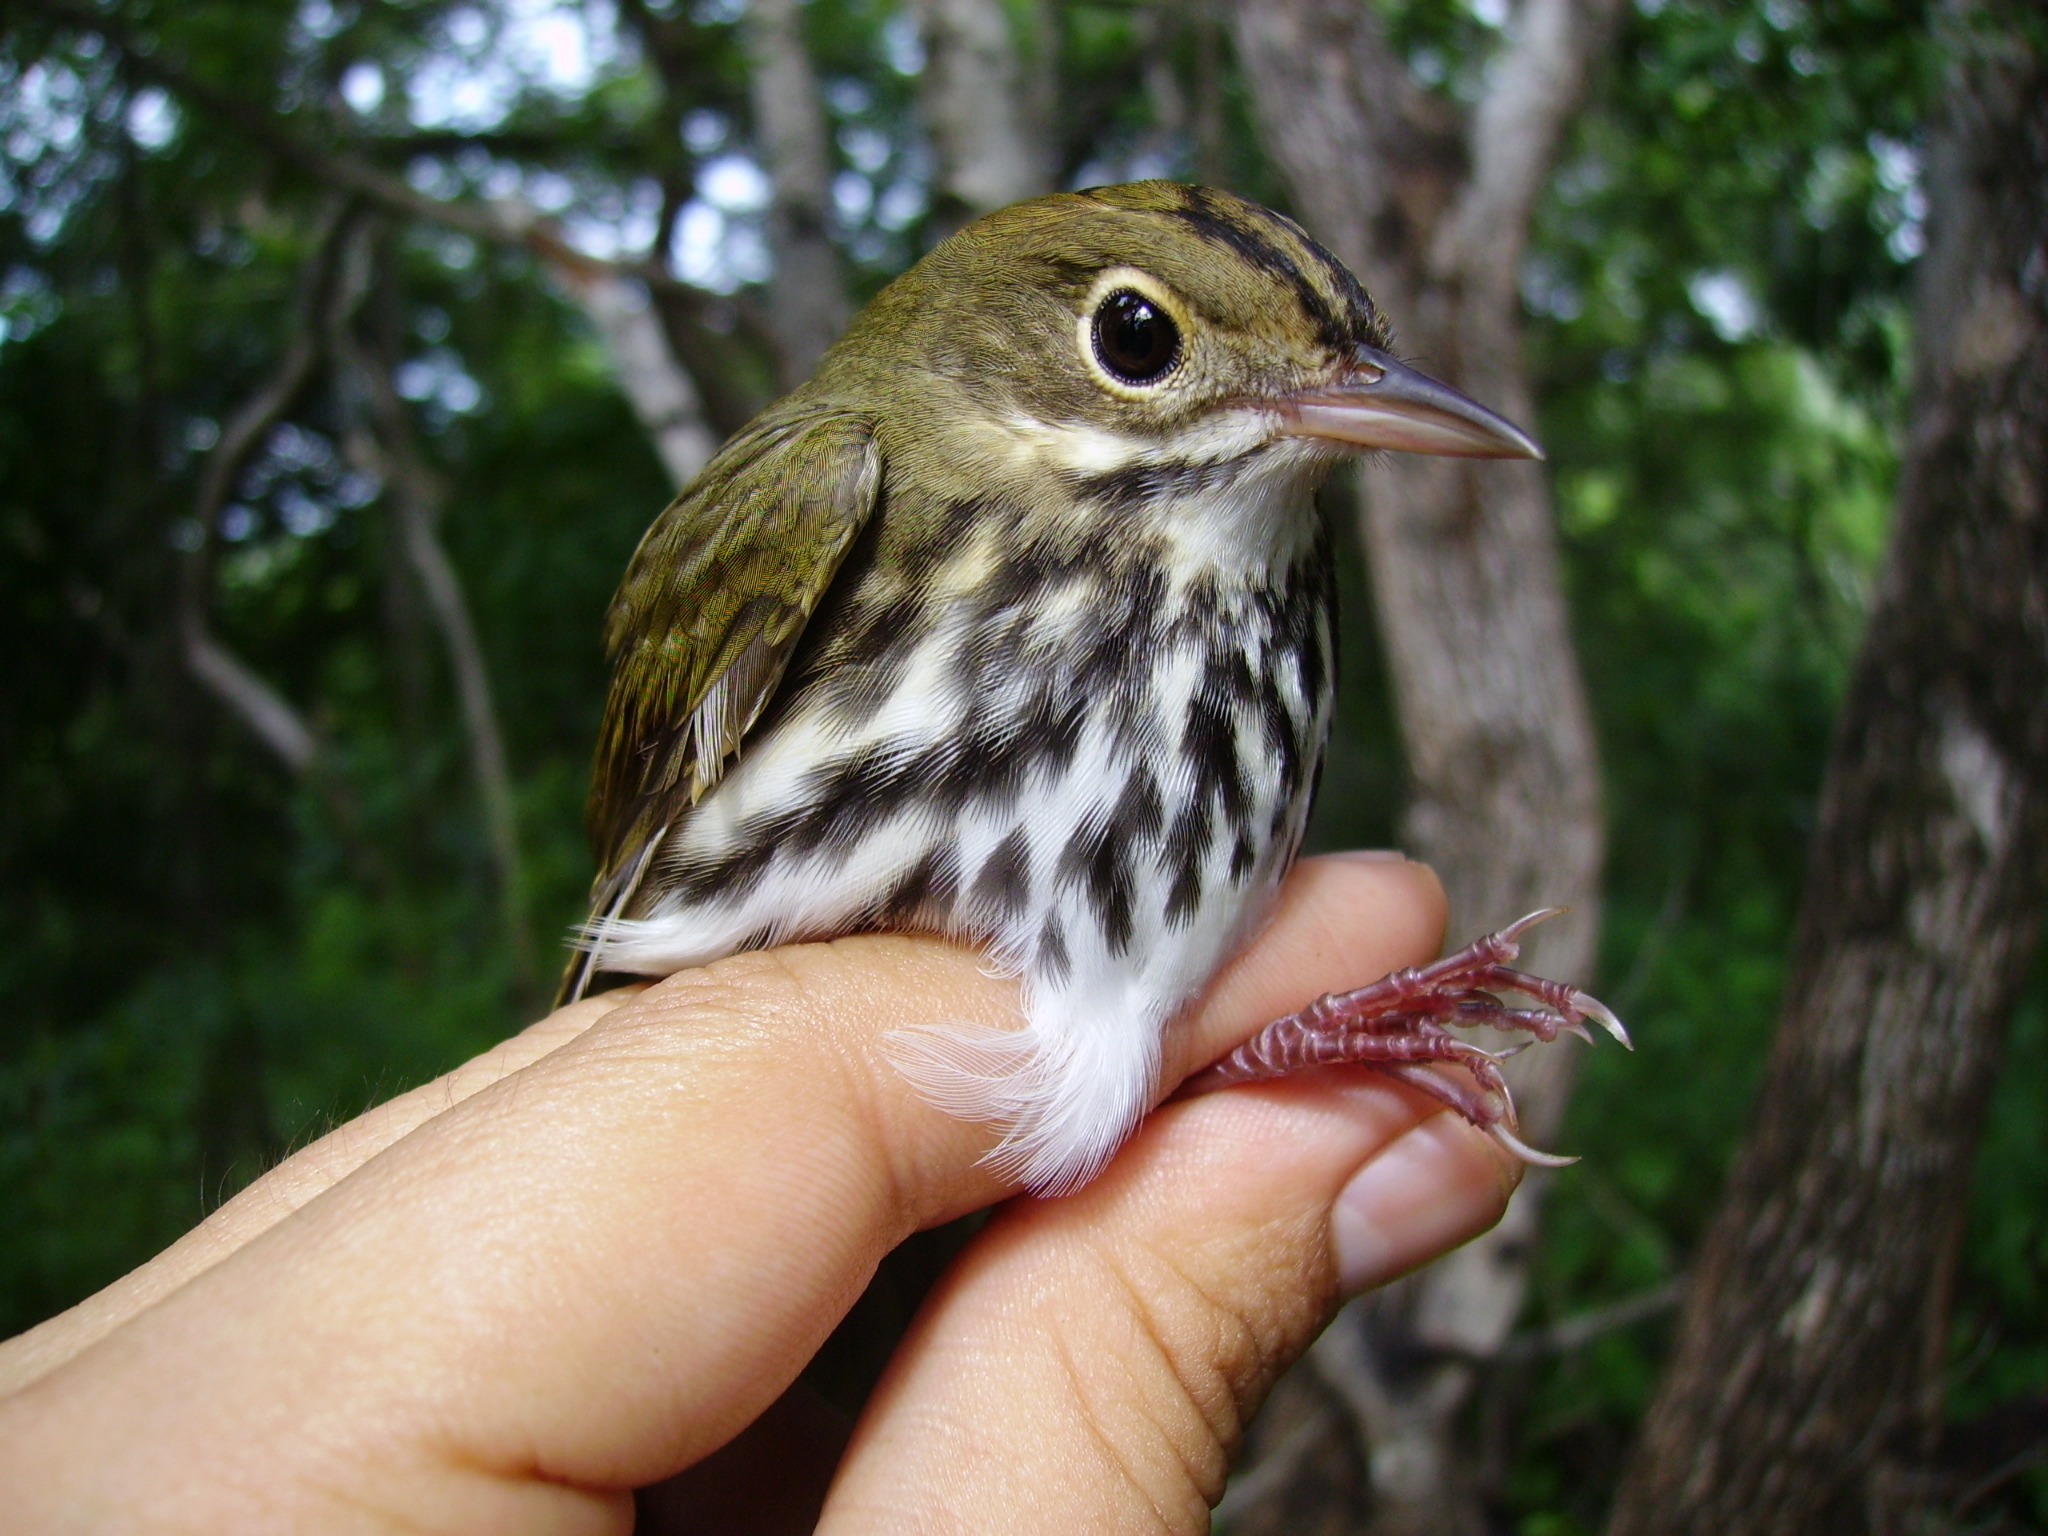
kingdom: Animalia
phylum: Chordata
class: Aves
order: Passeriformes
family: Parulidae
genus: Seiurus
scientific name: Seiurus aurocapilla
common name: Ovenbird
